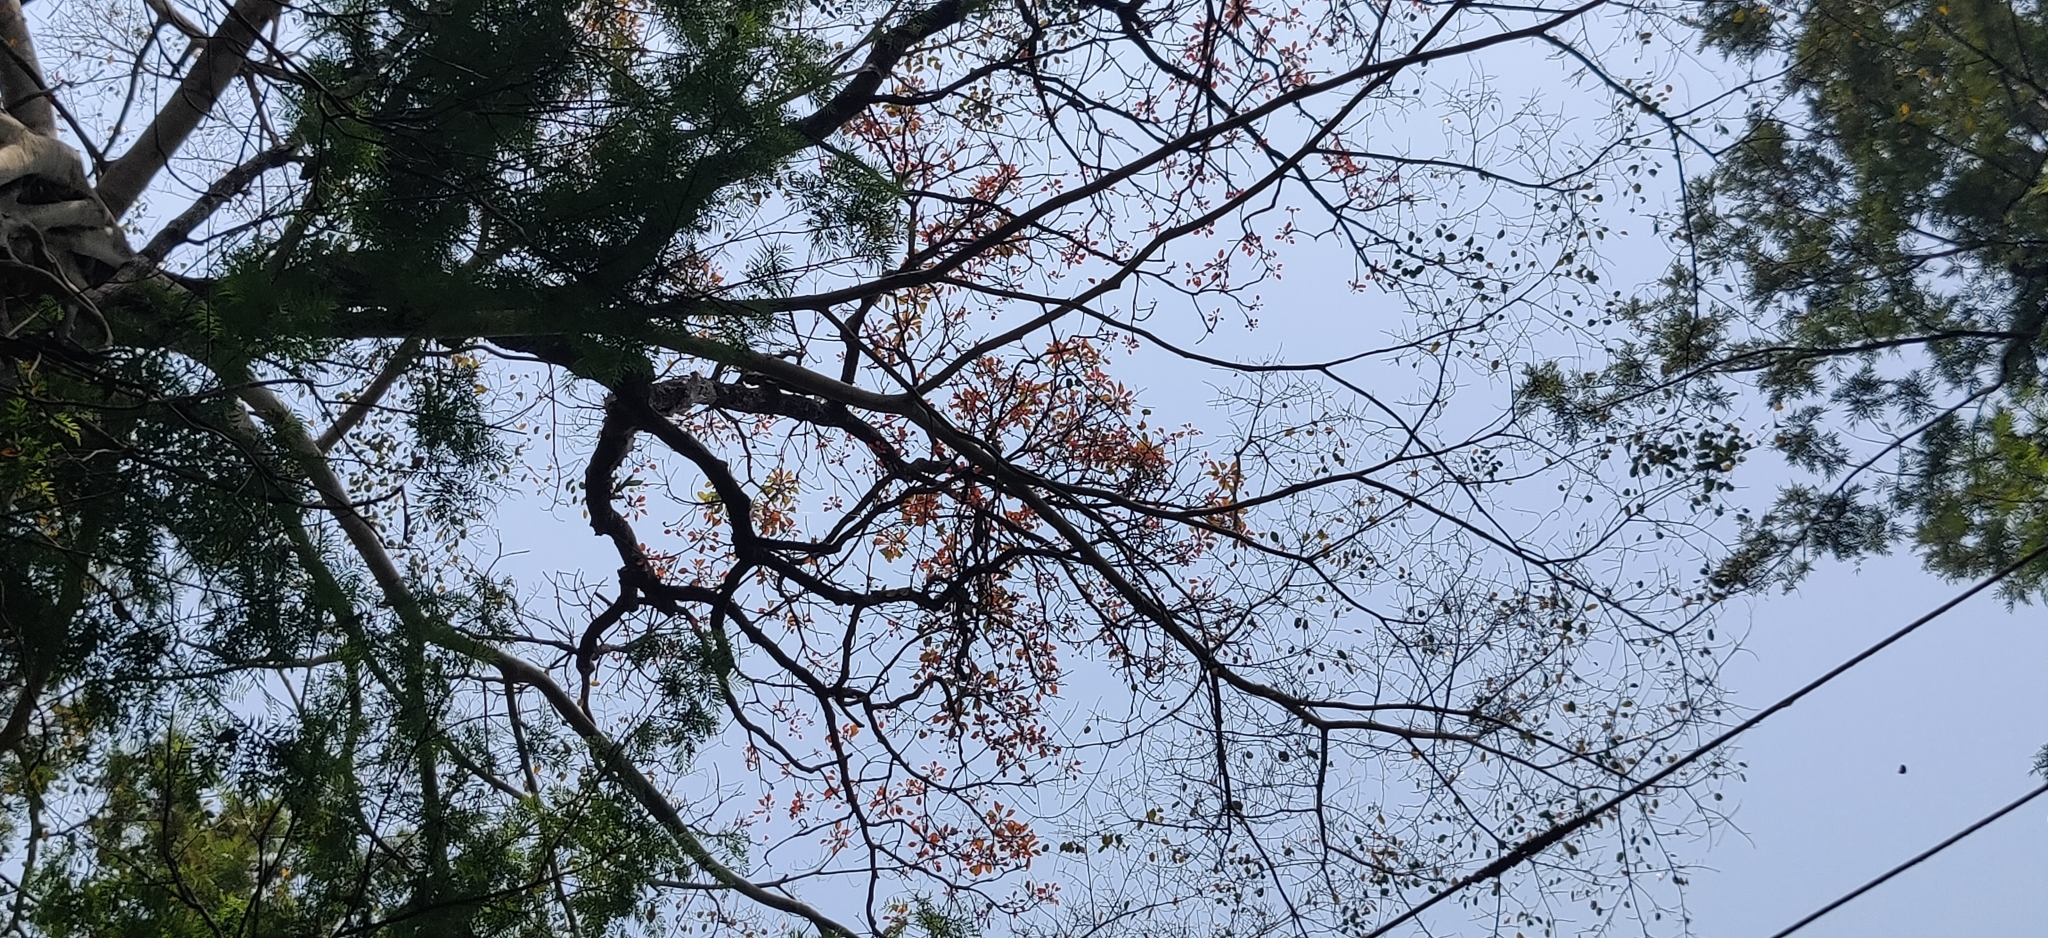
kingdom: Plantae
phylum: Tracheophyta
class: Magnoliopsida
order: Myrtales
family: Combretaceae
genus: Terminalia
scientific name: Terminalia bellirica
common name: Beleric myrobalan
